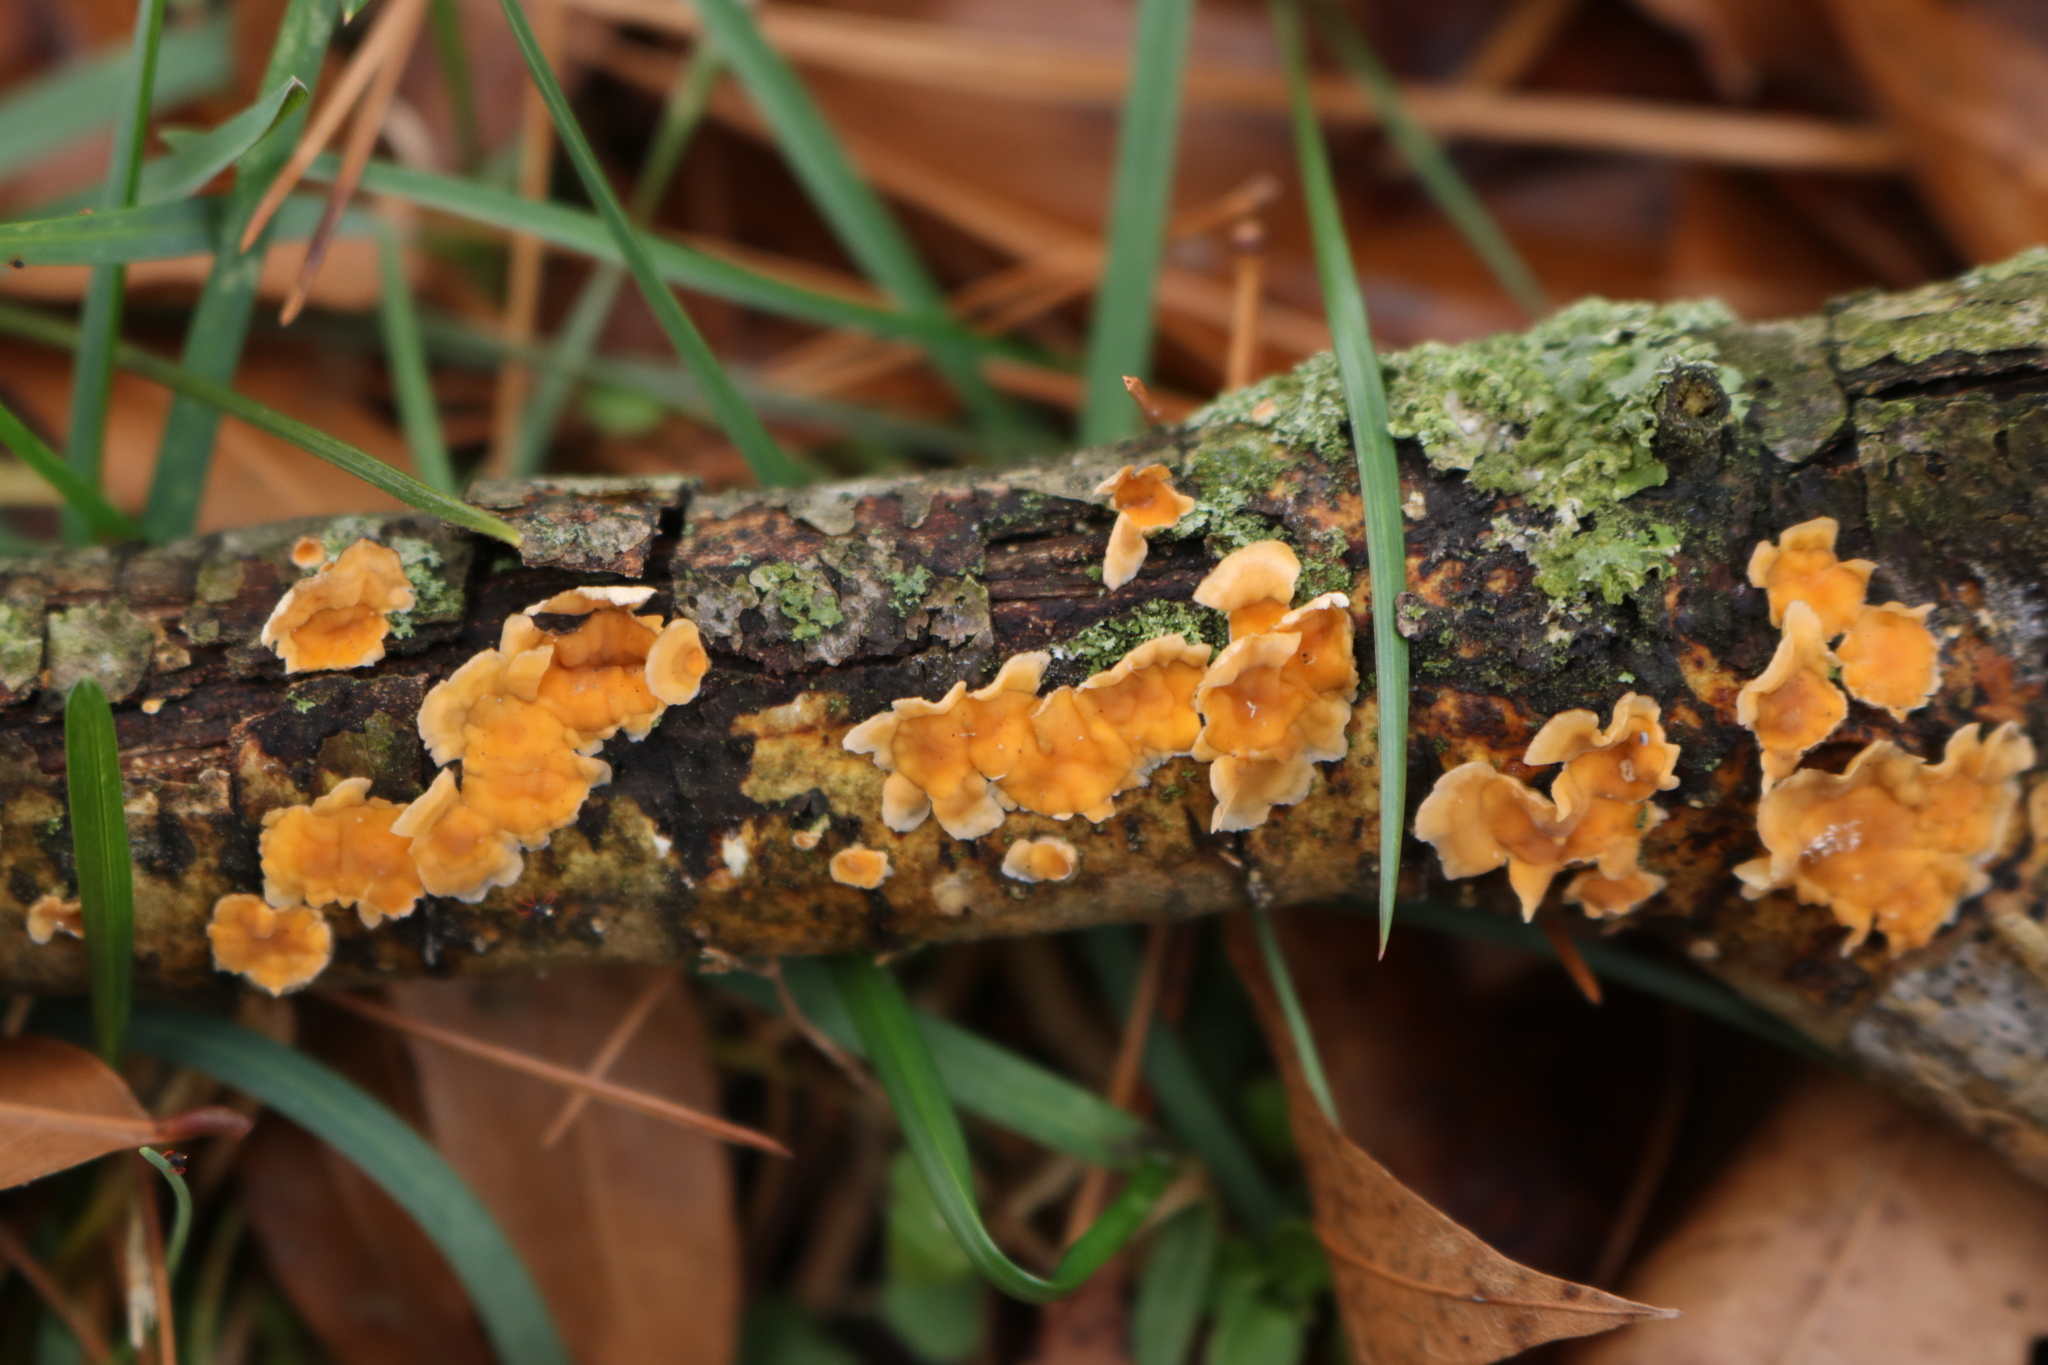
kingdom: Fungi
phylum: Basidiomycota
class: Agaricomycetes
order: Russulales
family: Stereaceae
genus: Stereum
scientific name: Stereum complicatum
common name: Crowded parchment
